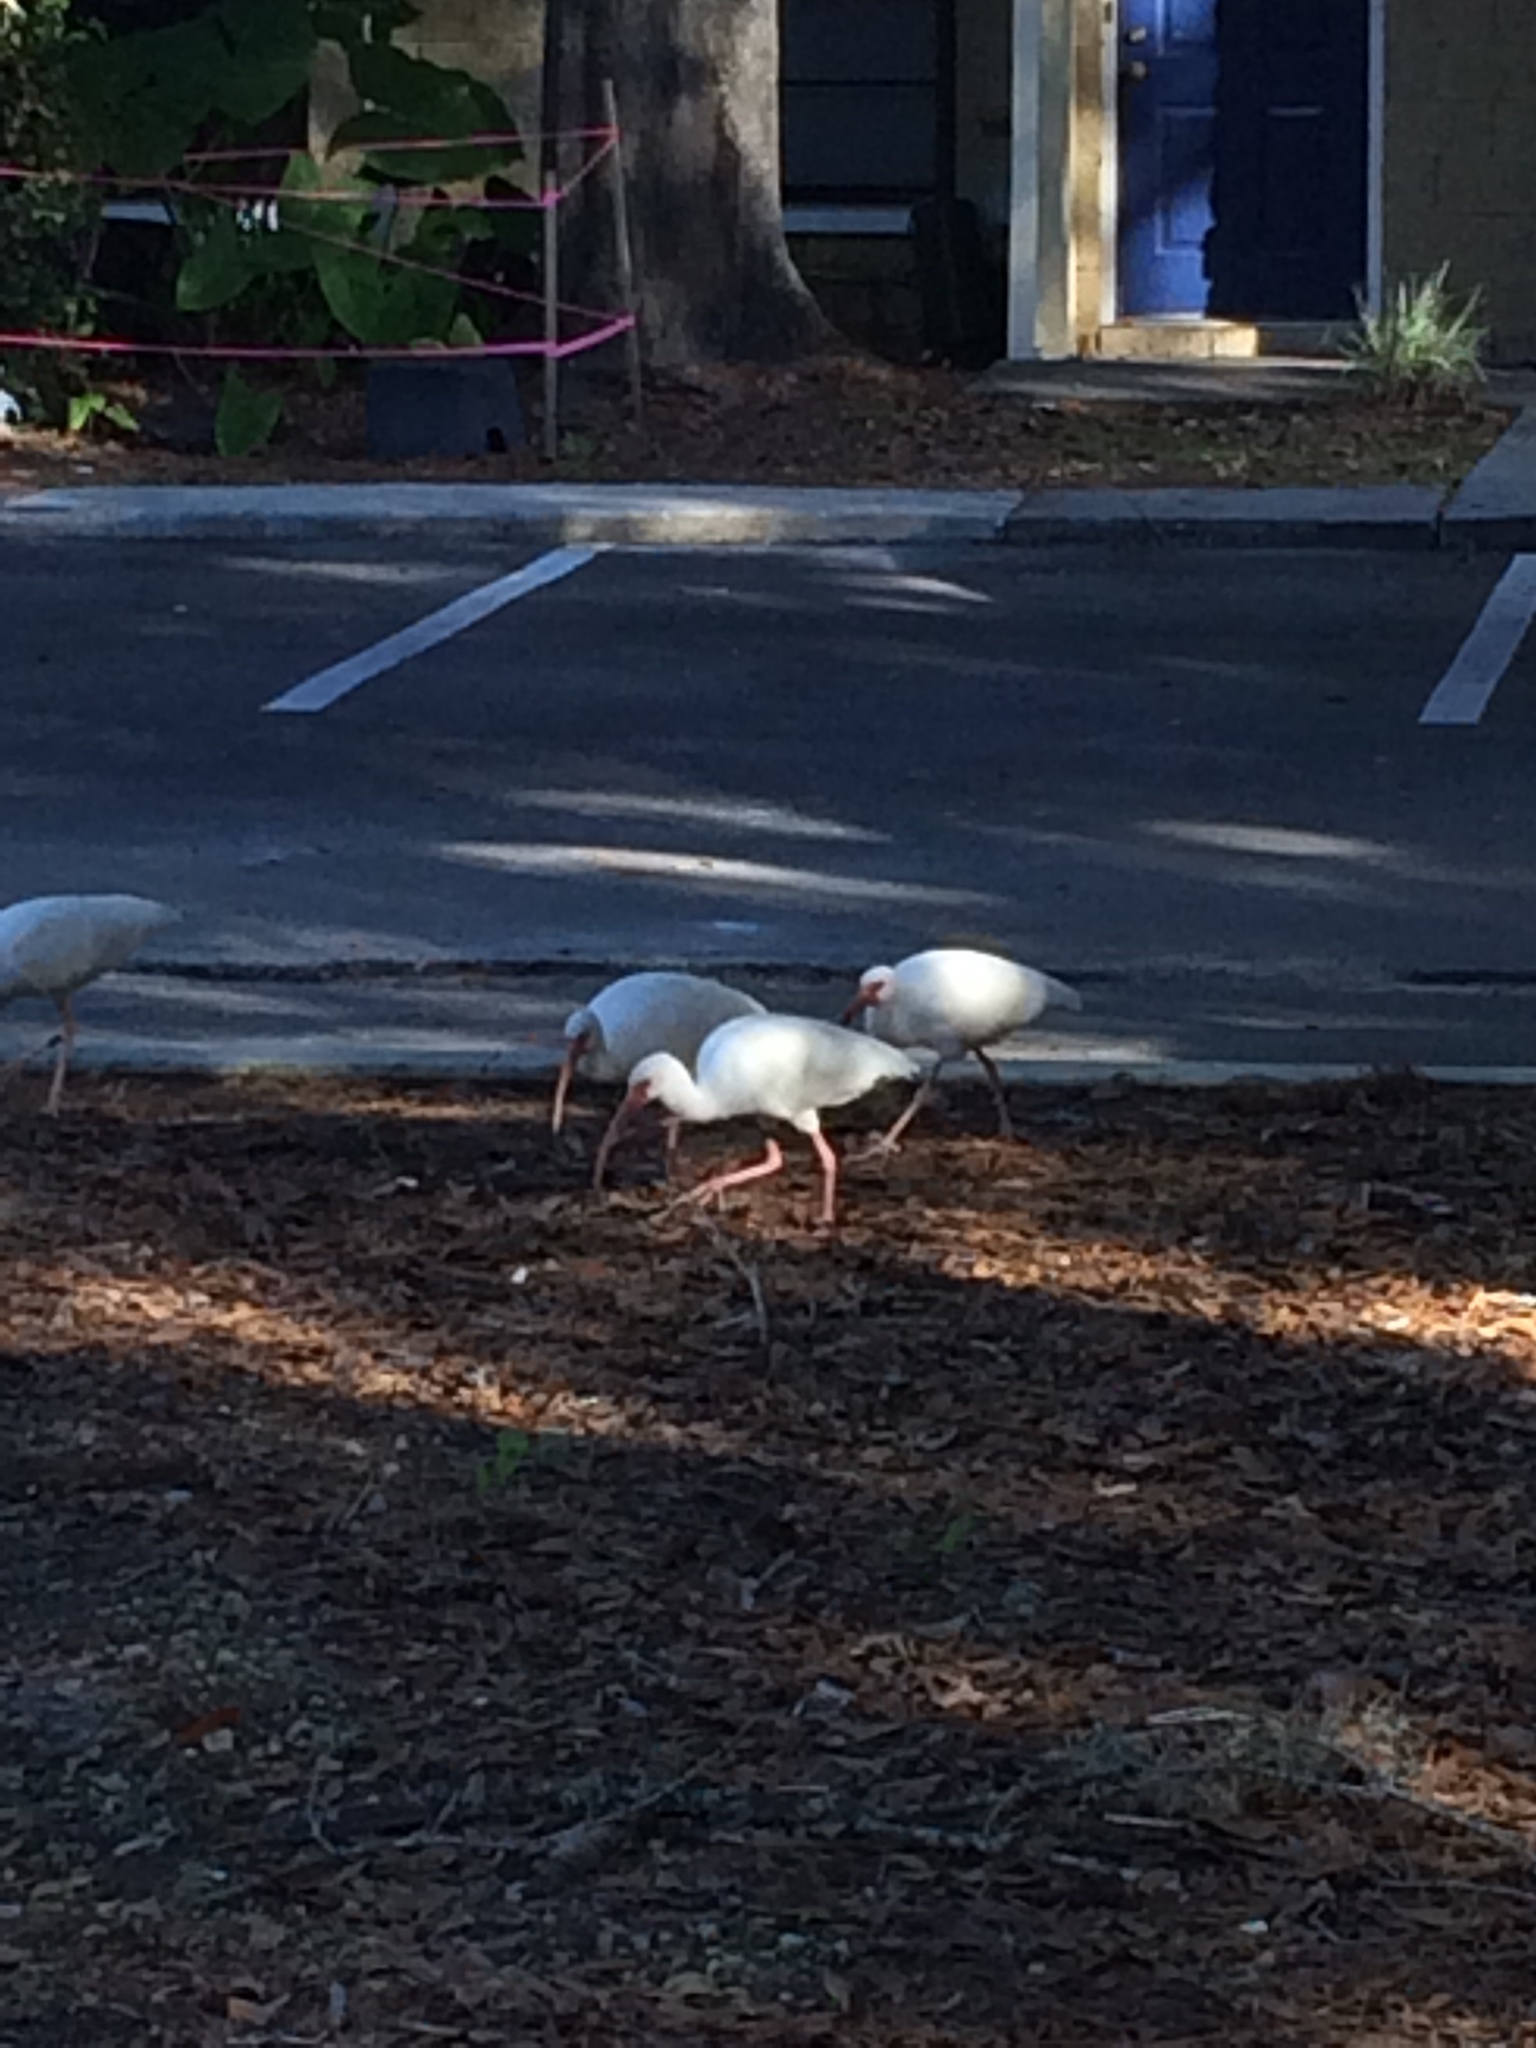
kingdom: Animalia
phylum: Chordata
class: Aves
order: Pelecaniformes
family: Threskiornithidae
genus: Eudocimus
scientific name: Eudocimus albus
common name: White ibis
